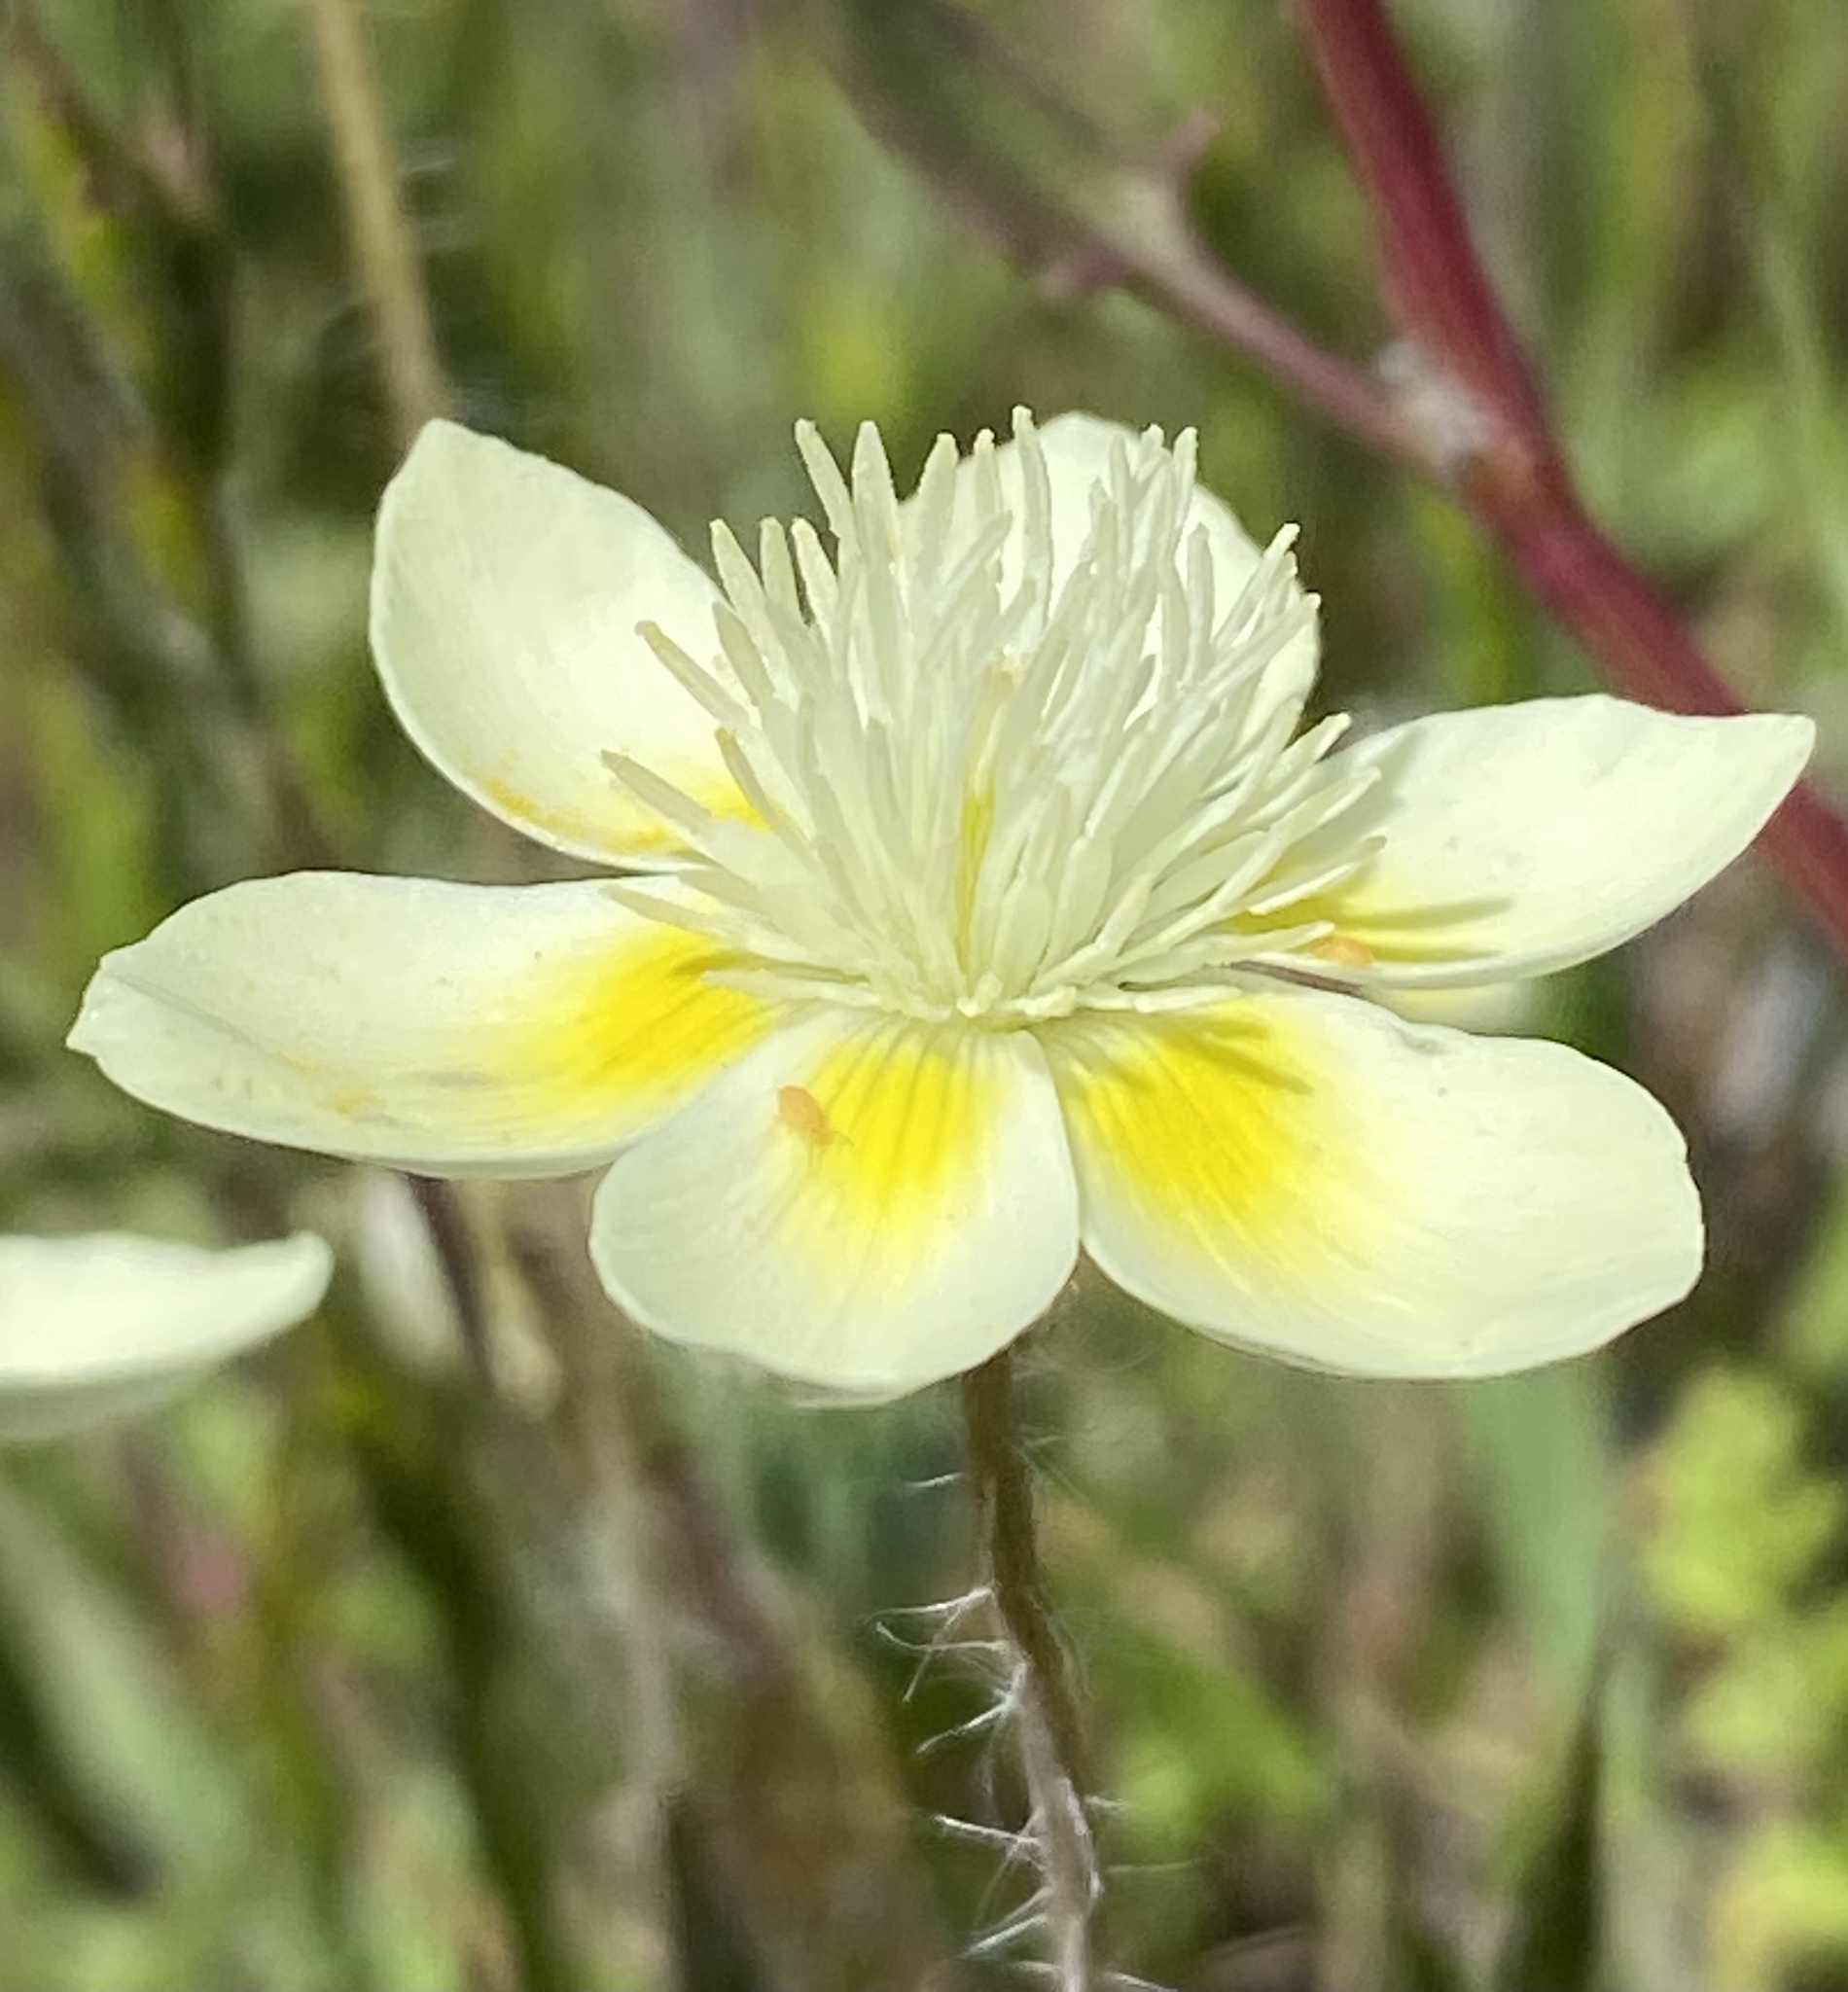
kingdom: Plantae
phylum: Tracheophyta
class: Magnoliopsida
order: Ranunculales
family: Papaveraceae
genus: Platystemon
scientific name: Platystemon californicus
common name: Cream-cups
